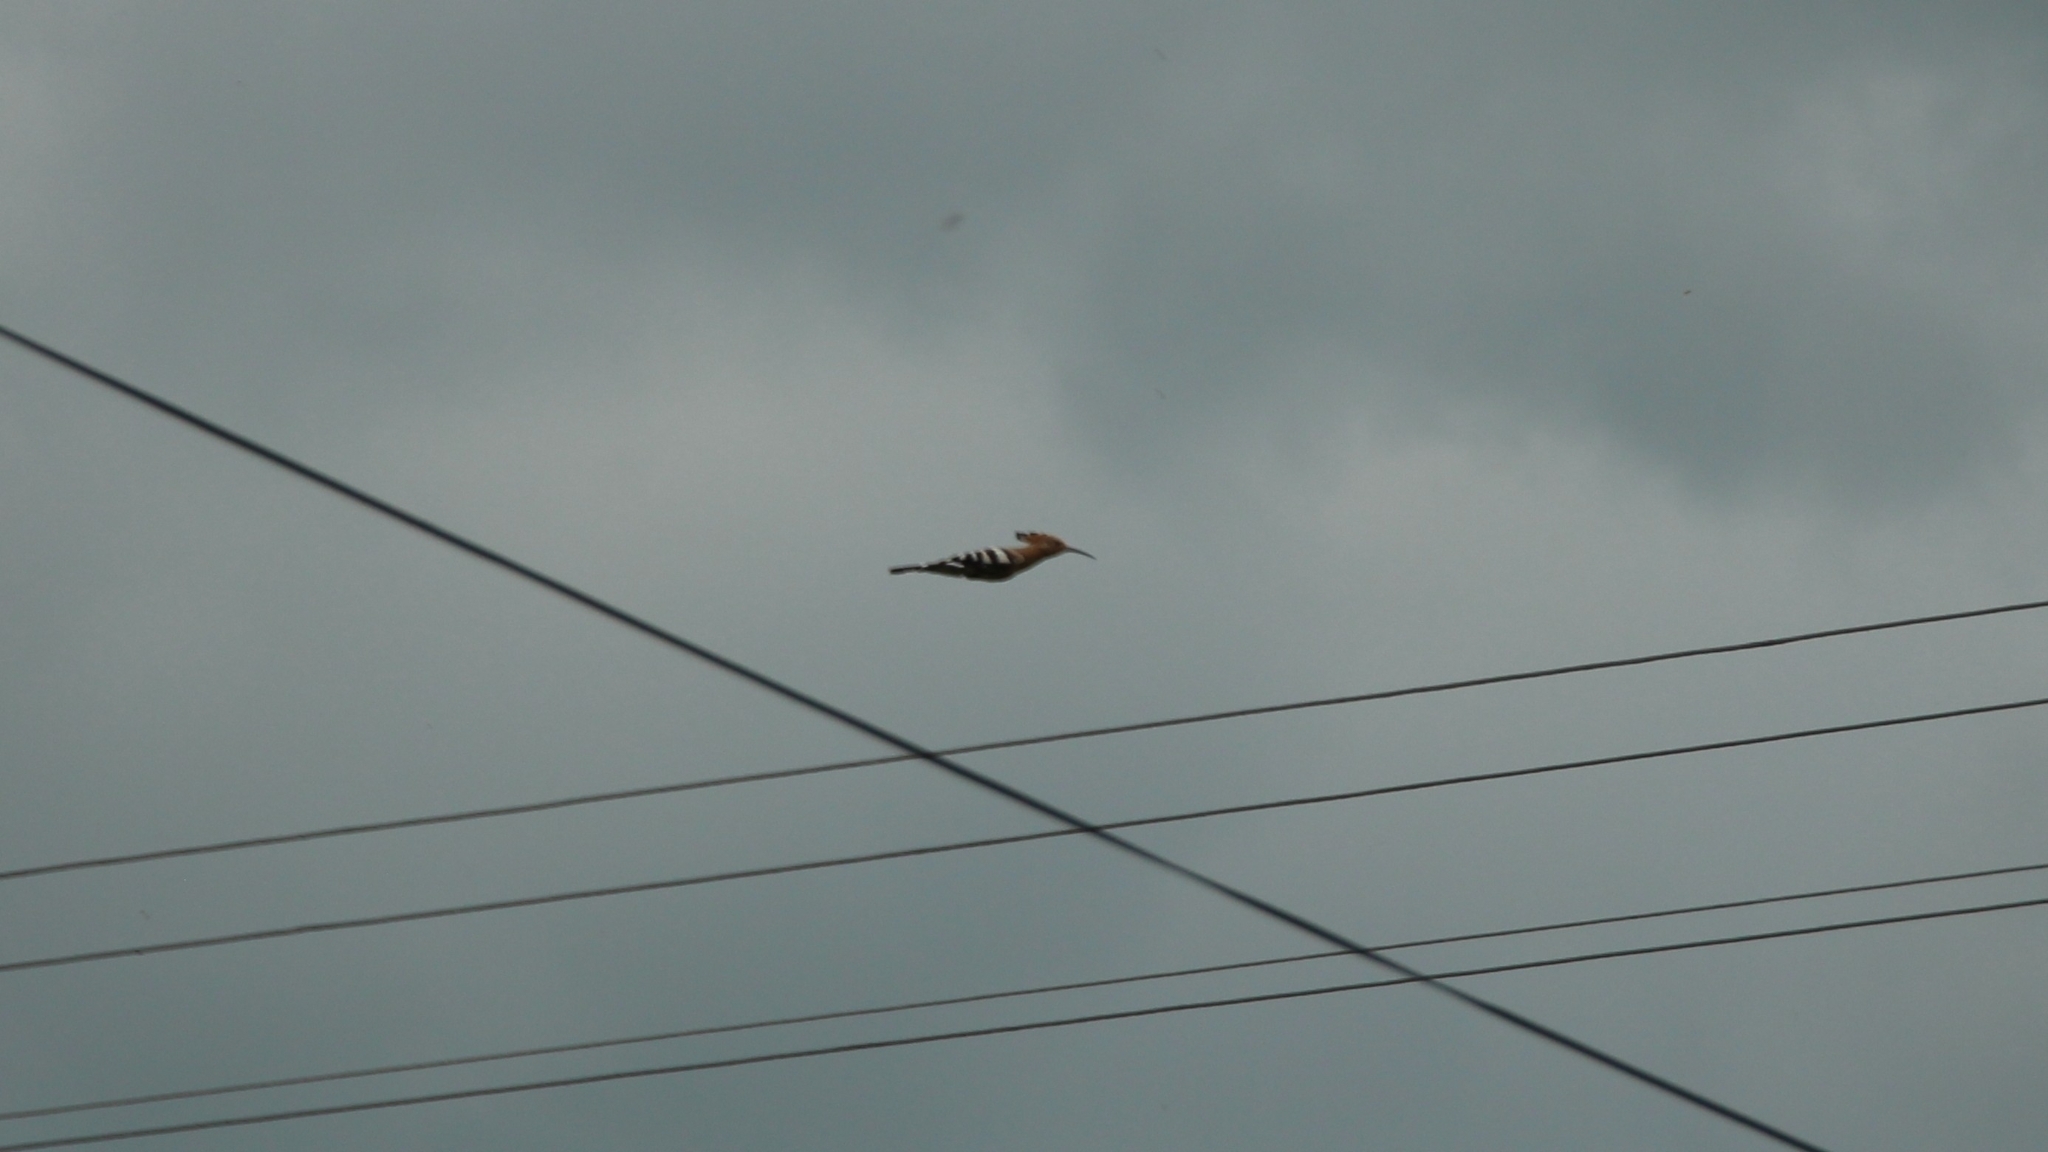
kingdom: Animalia
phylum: Chordata
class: Aves
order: Bucerotiformes
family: Upupidae
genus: Upupa
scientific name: Upupa epops
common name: Eurasian hoopoe
